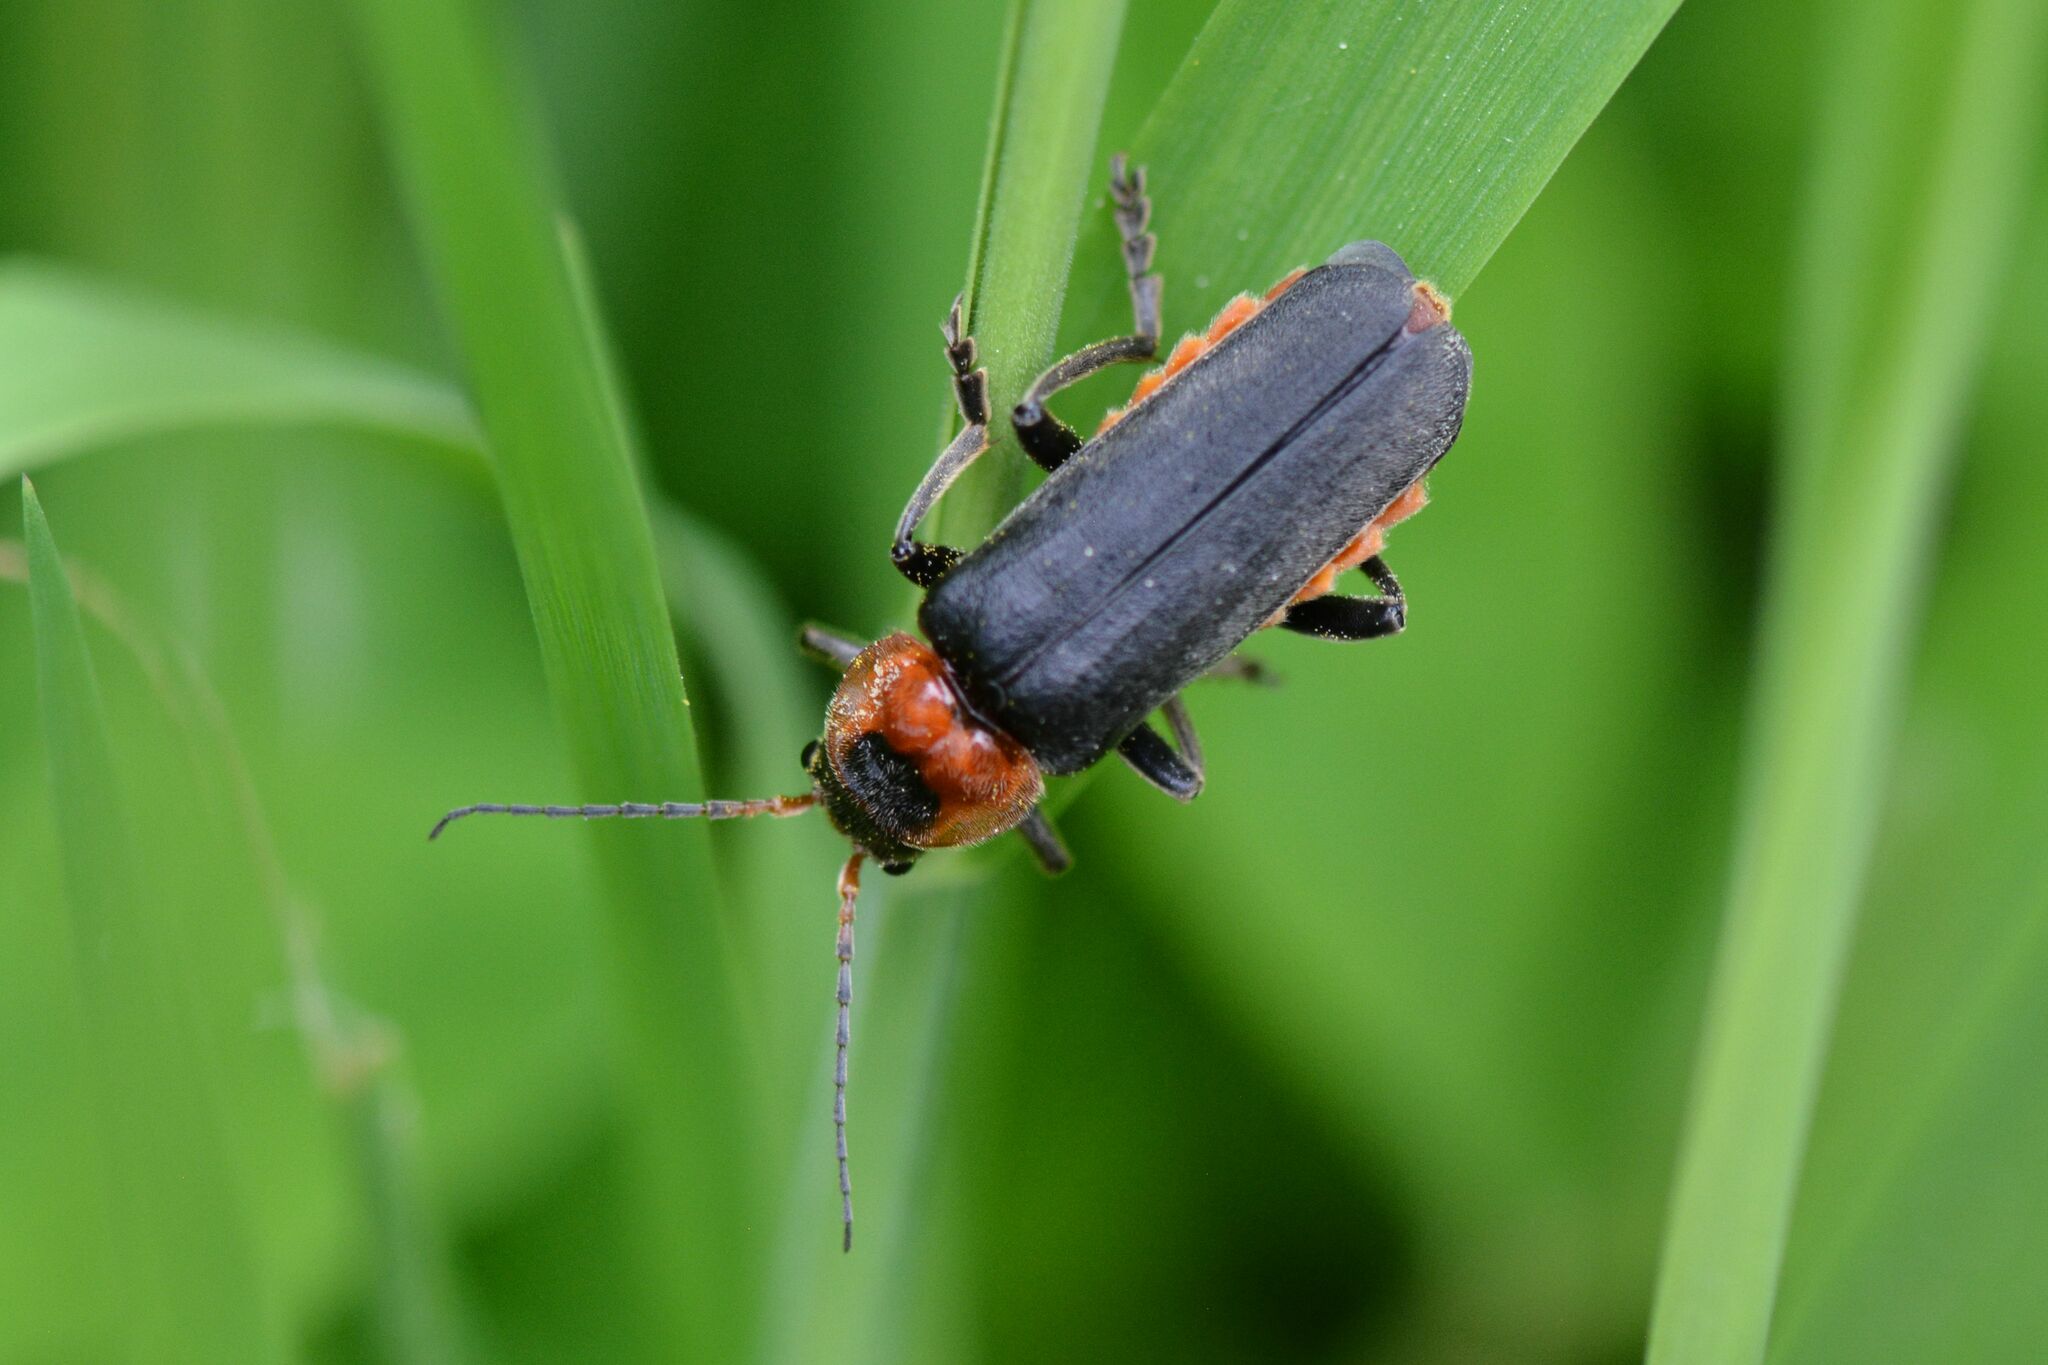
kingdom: Animalia
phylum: Arthropoda
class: Insecta
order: Coleoptera
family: Cantharidae
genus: Cantharis
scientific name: Cantharis fusca
